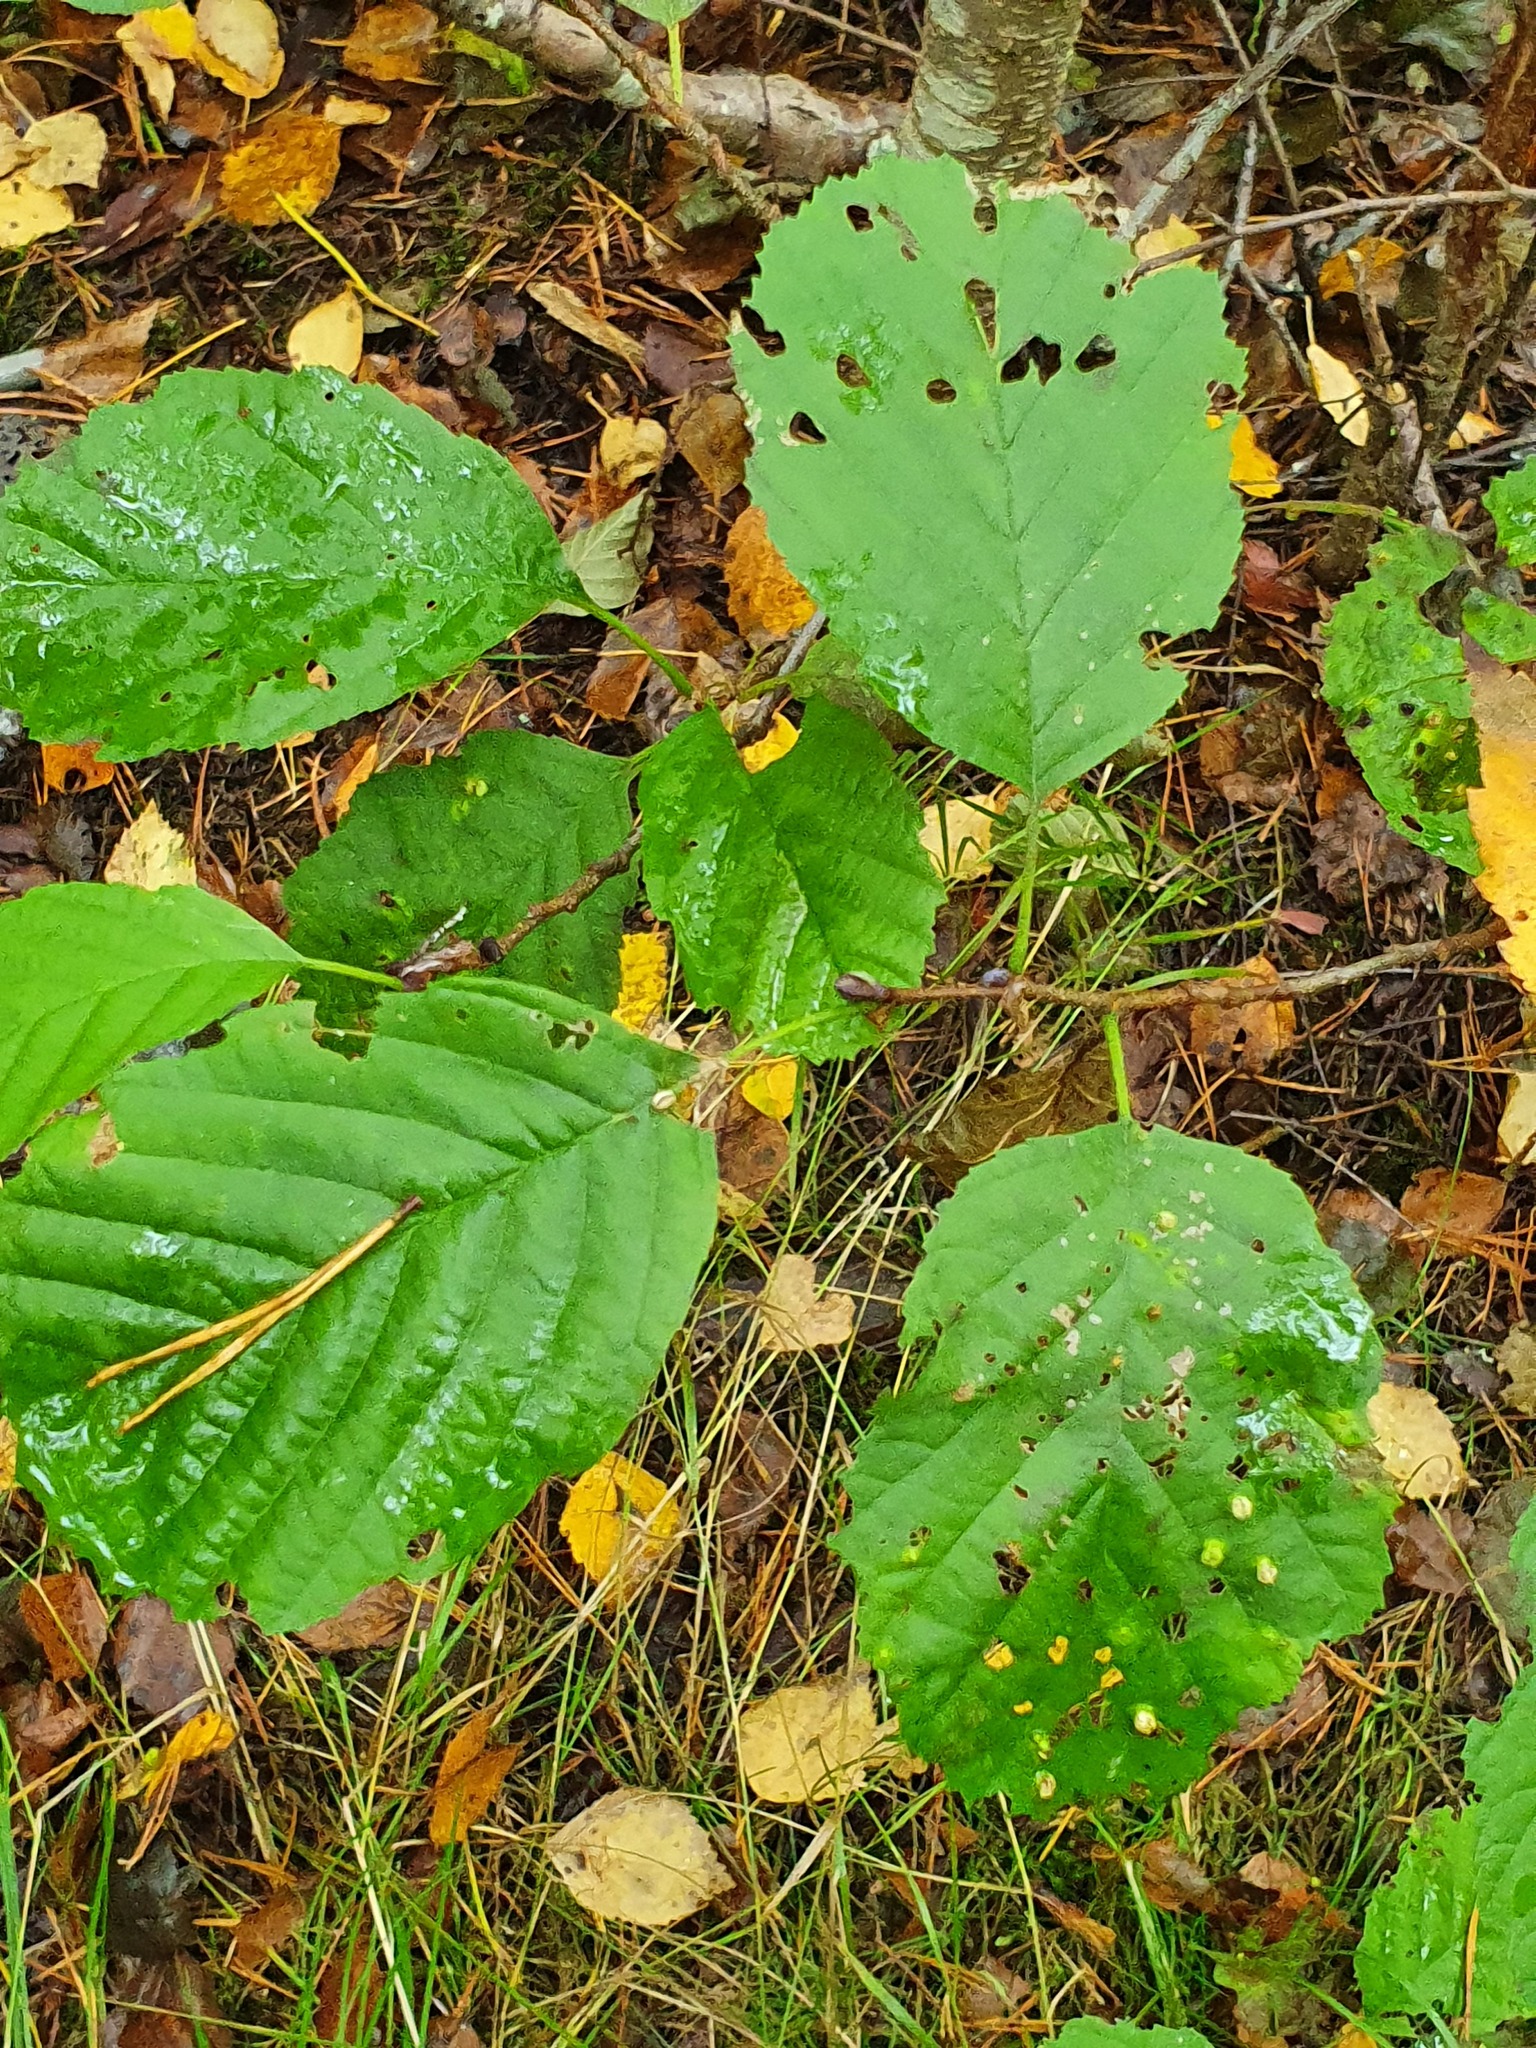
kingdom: Plantae
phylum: Tracheophyta
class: Magnoliopsida
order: Fagales
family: Betulaceae
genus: Alnus
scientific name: Alnus glutinosa
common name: Black alder
